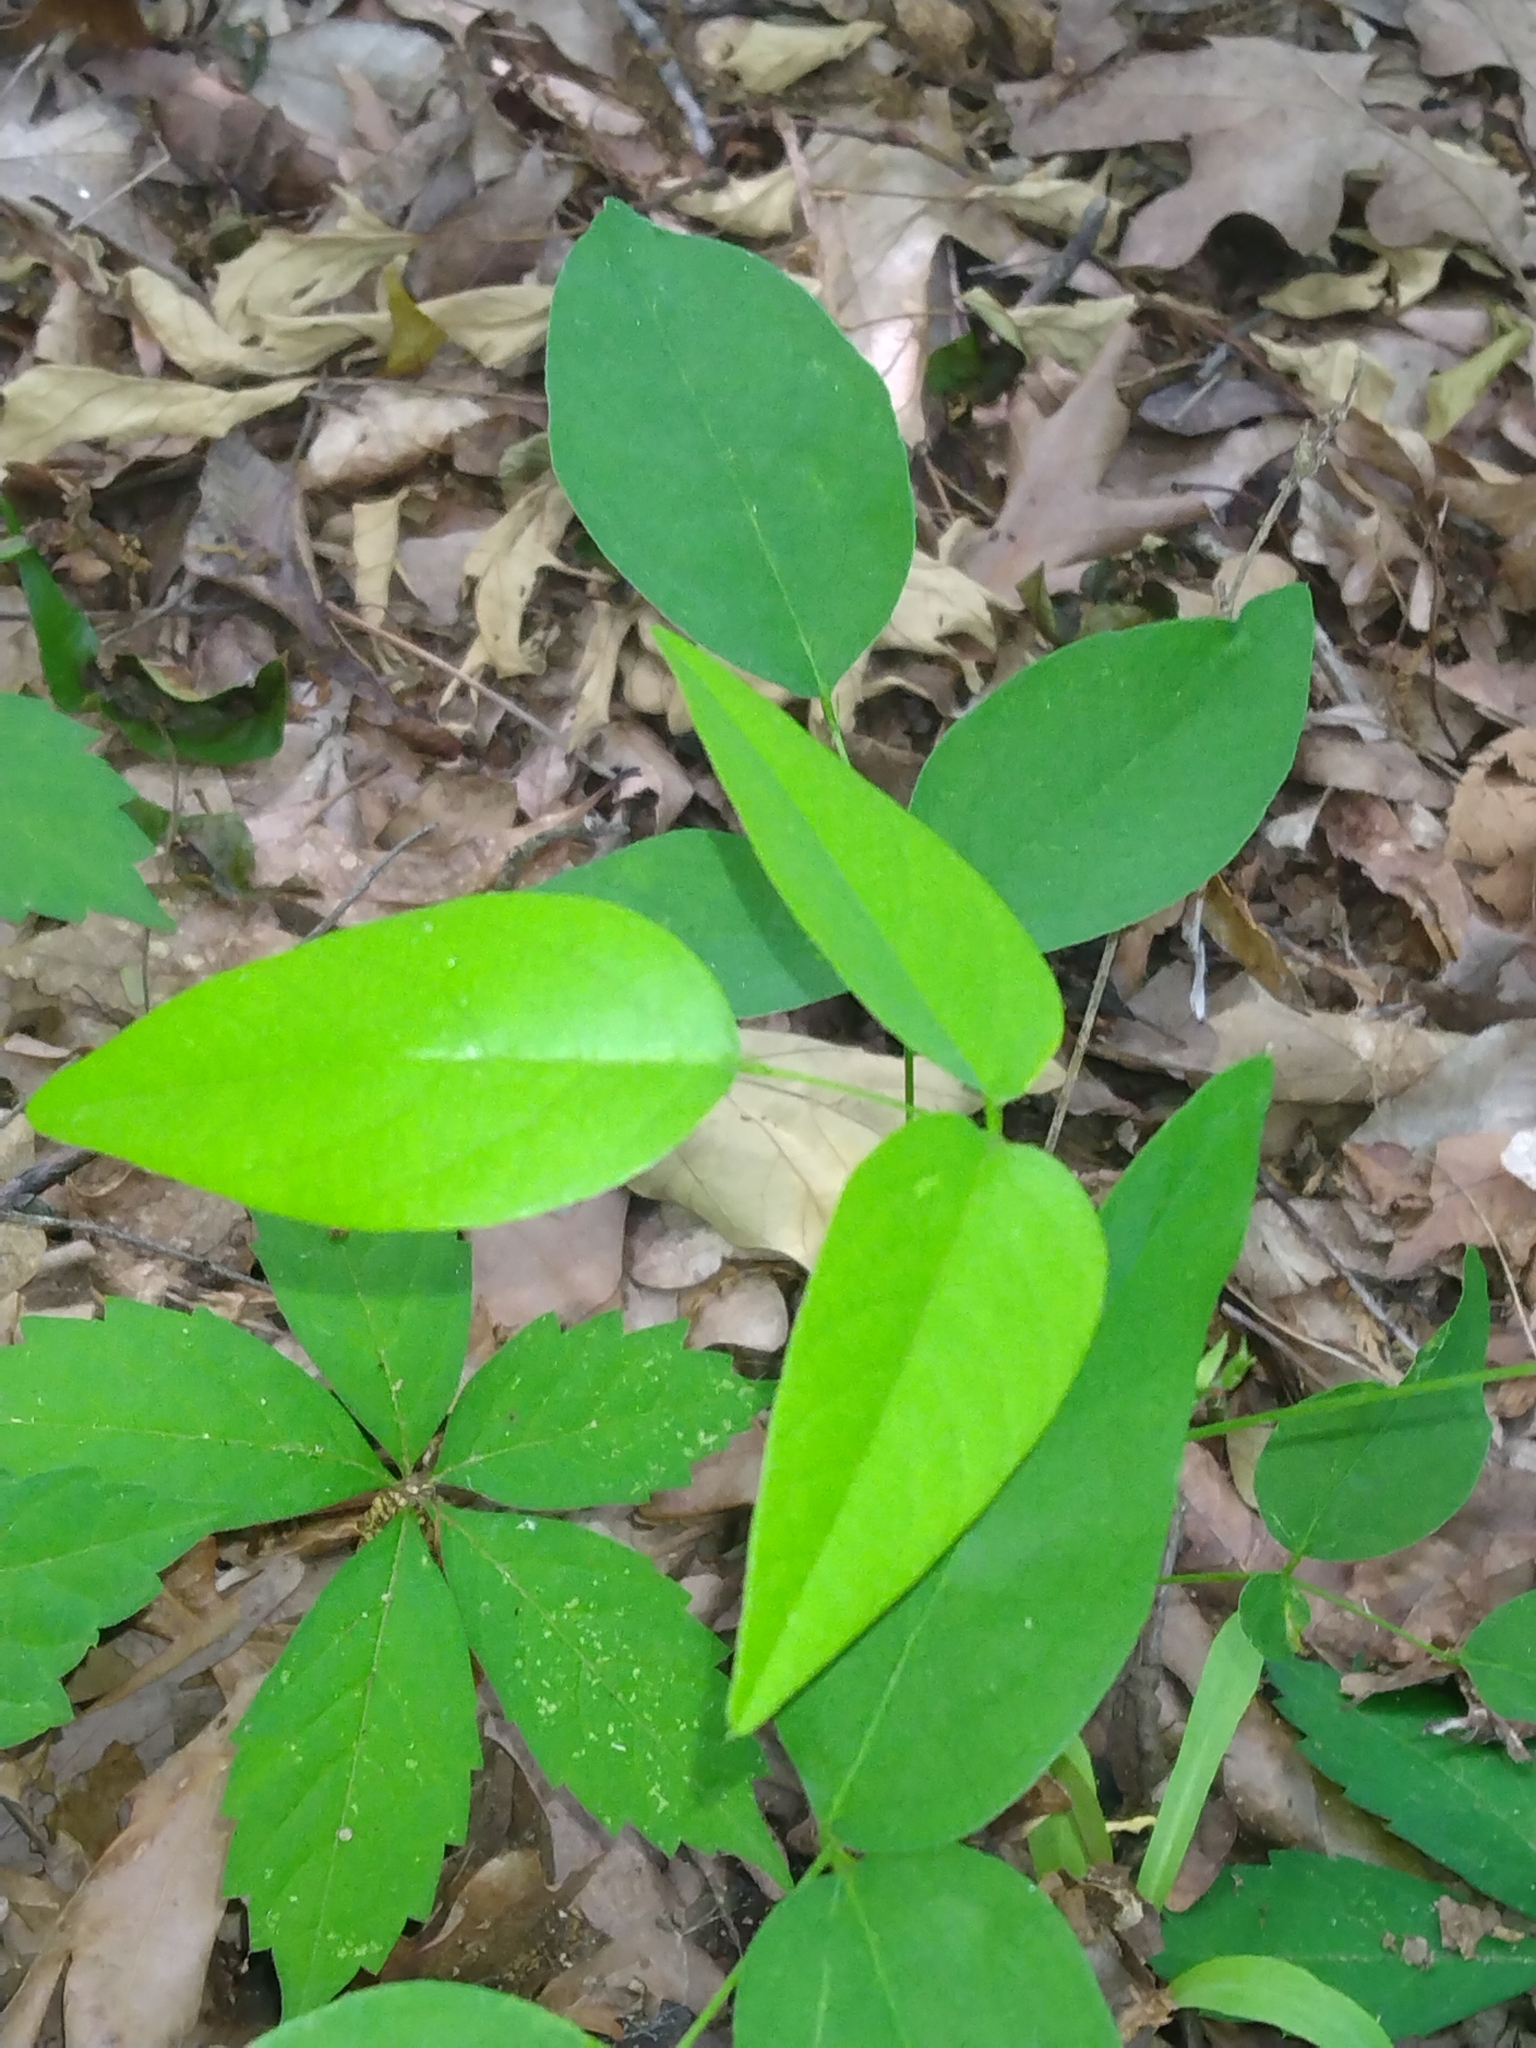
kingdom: Plantae
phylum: Tracheophyta
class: Magnoliopsida
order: Fabales
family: Fabaceae
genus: Clitoria
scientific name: Clitoria mariana
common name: Butterfly-pea
